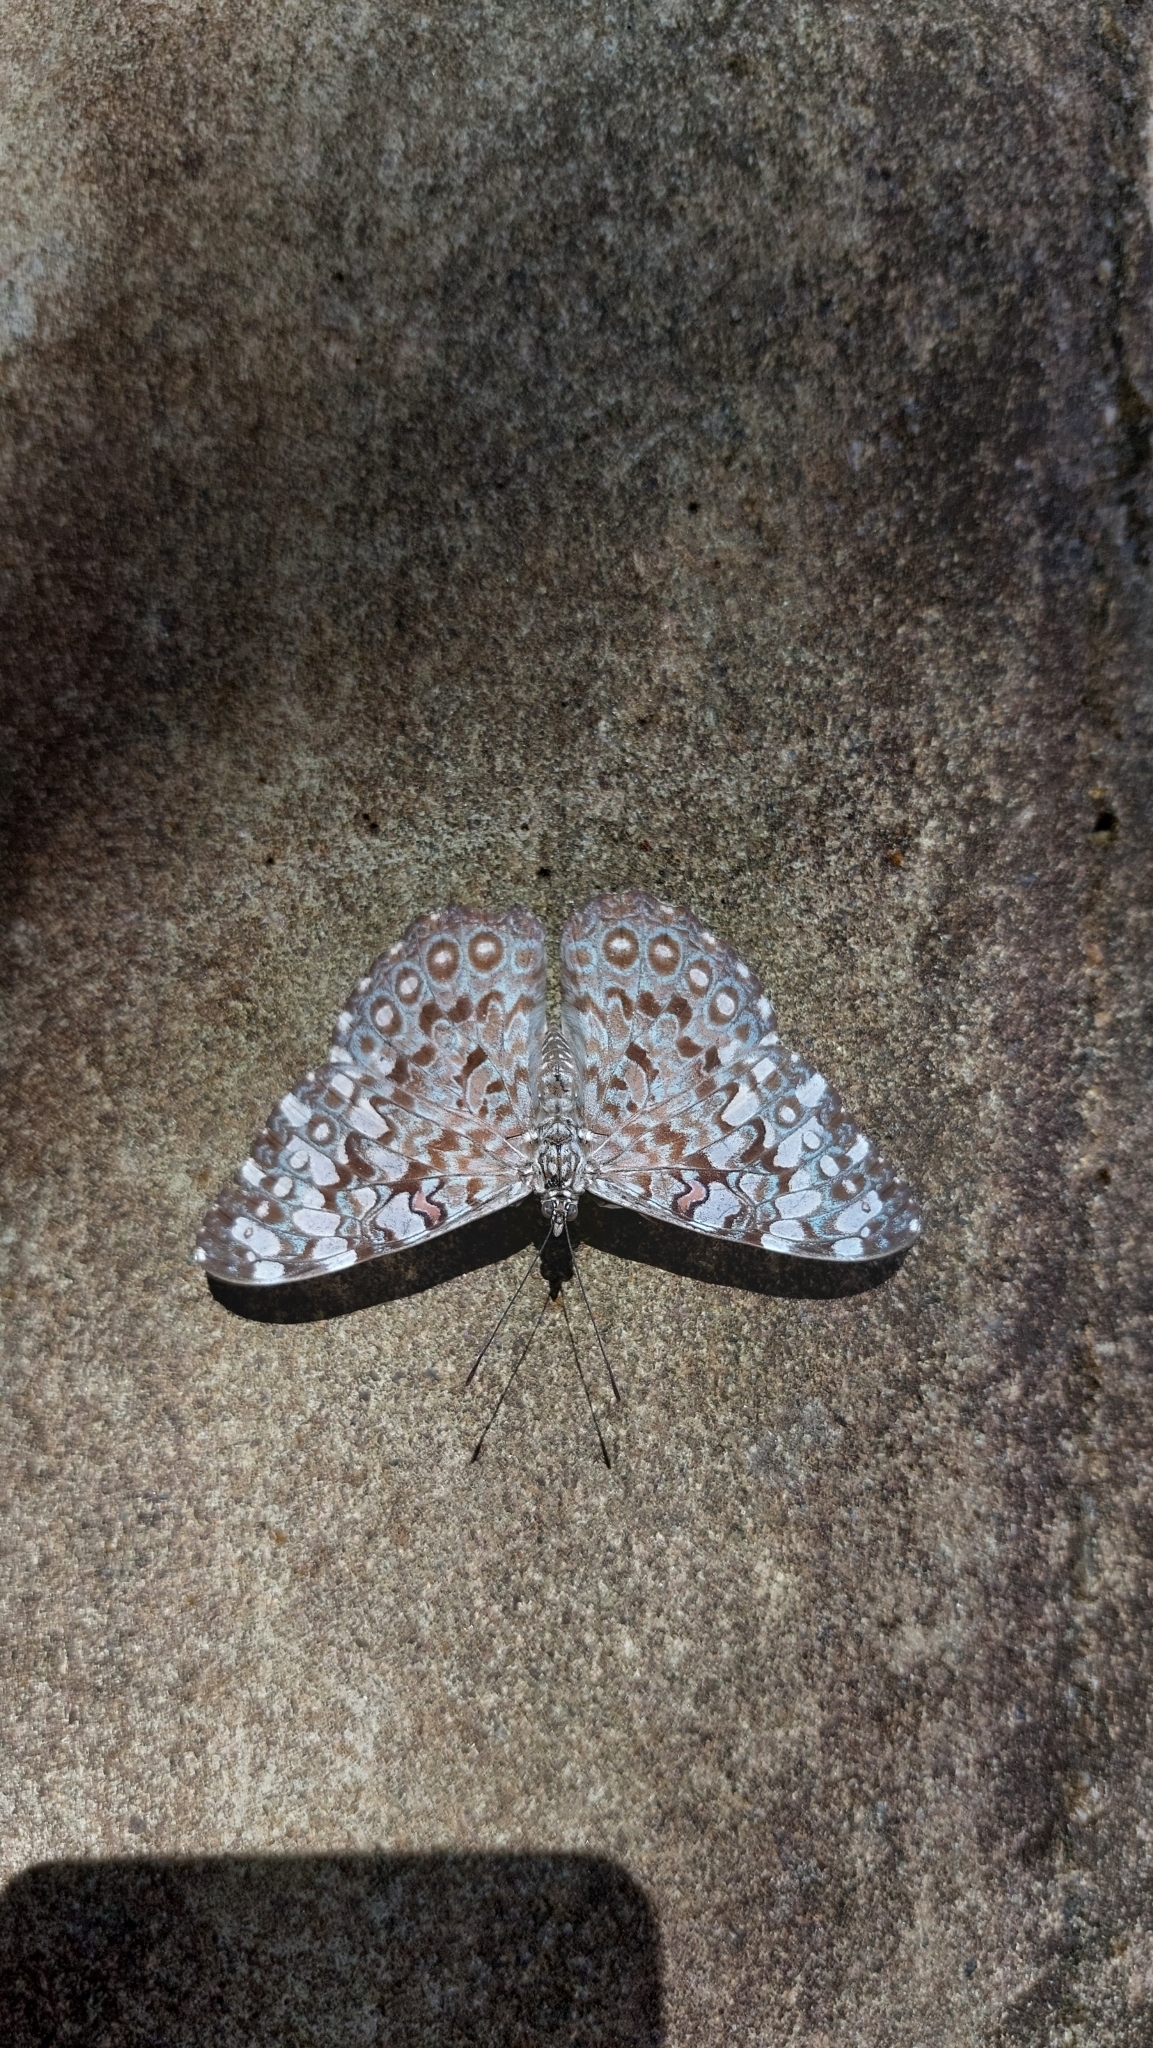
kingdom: Animalia
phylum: Arthropoda
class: Insecta
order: Lepidoptera
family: Nymphalidae
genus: Hamadryas
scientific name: Hamadryas feronia
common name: Variable cracker
